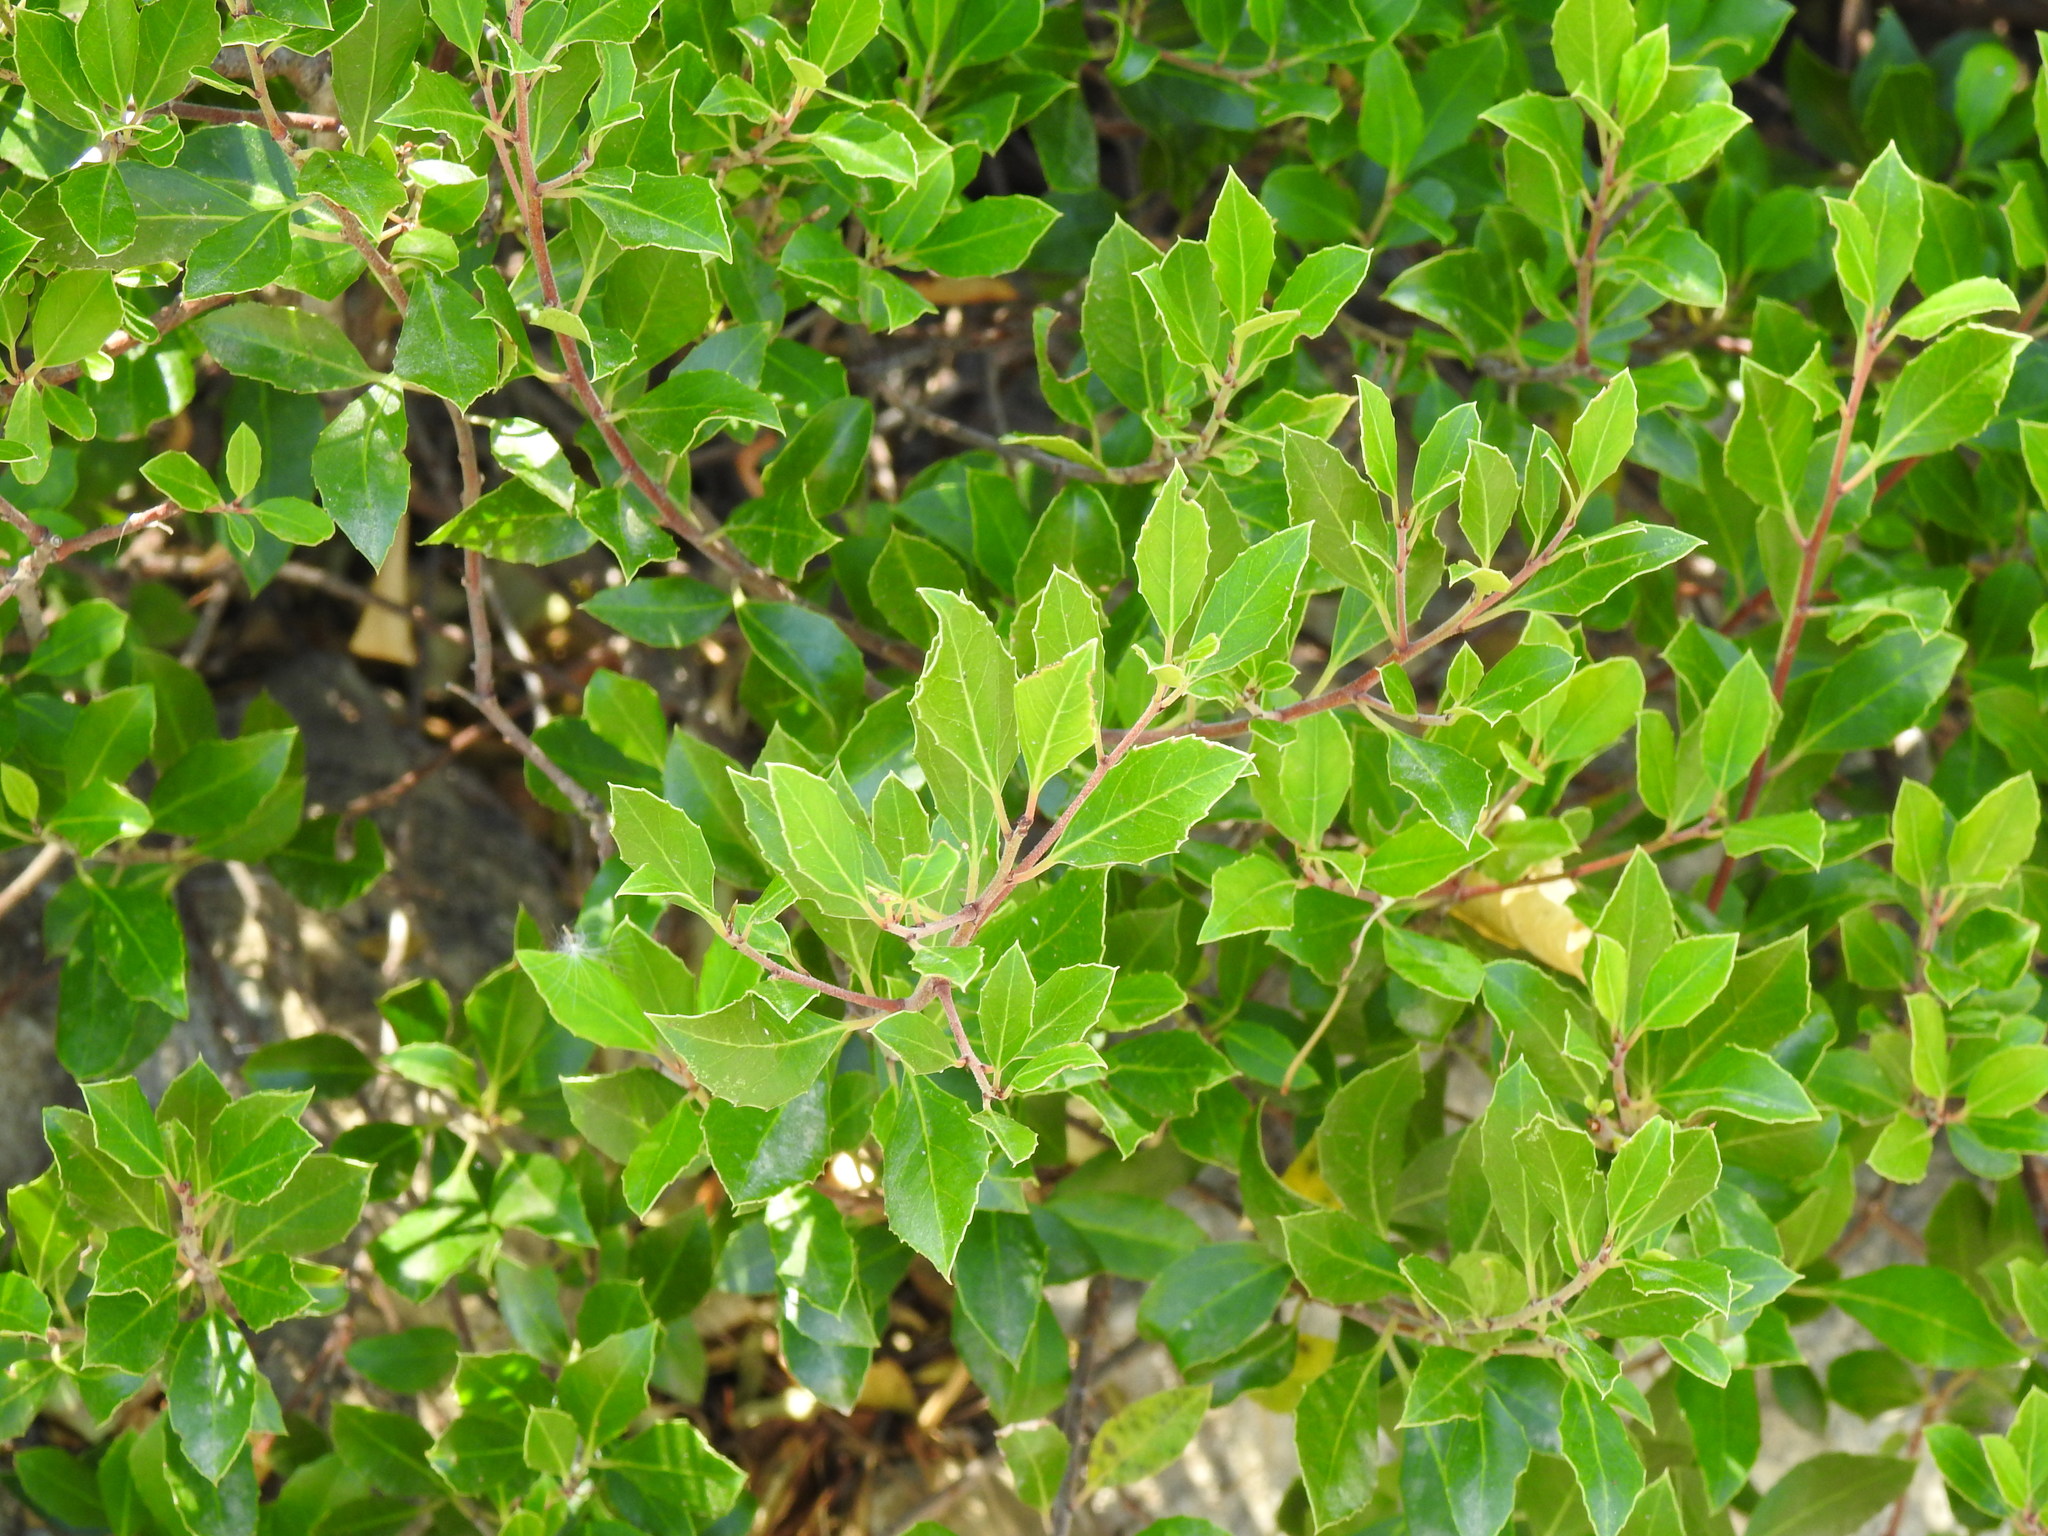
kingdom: Plantae
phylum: Tracheophyta
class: Magnoliopsida
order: Rosales
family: Rhamnaceae
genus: Rhamnus
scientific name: Rhamnus alaternus
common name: Mediterranean buckthorn
